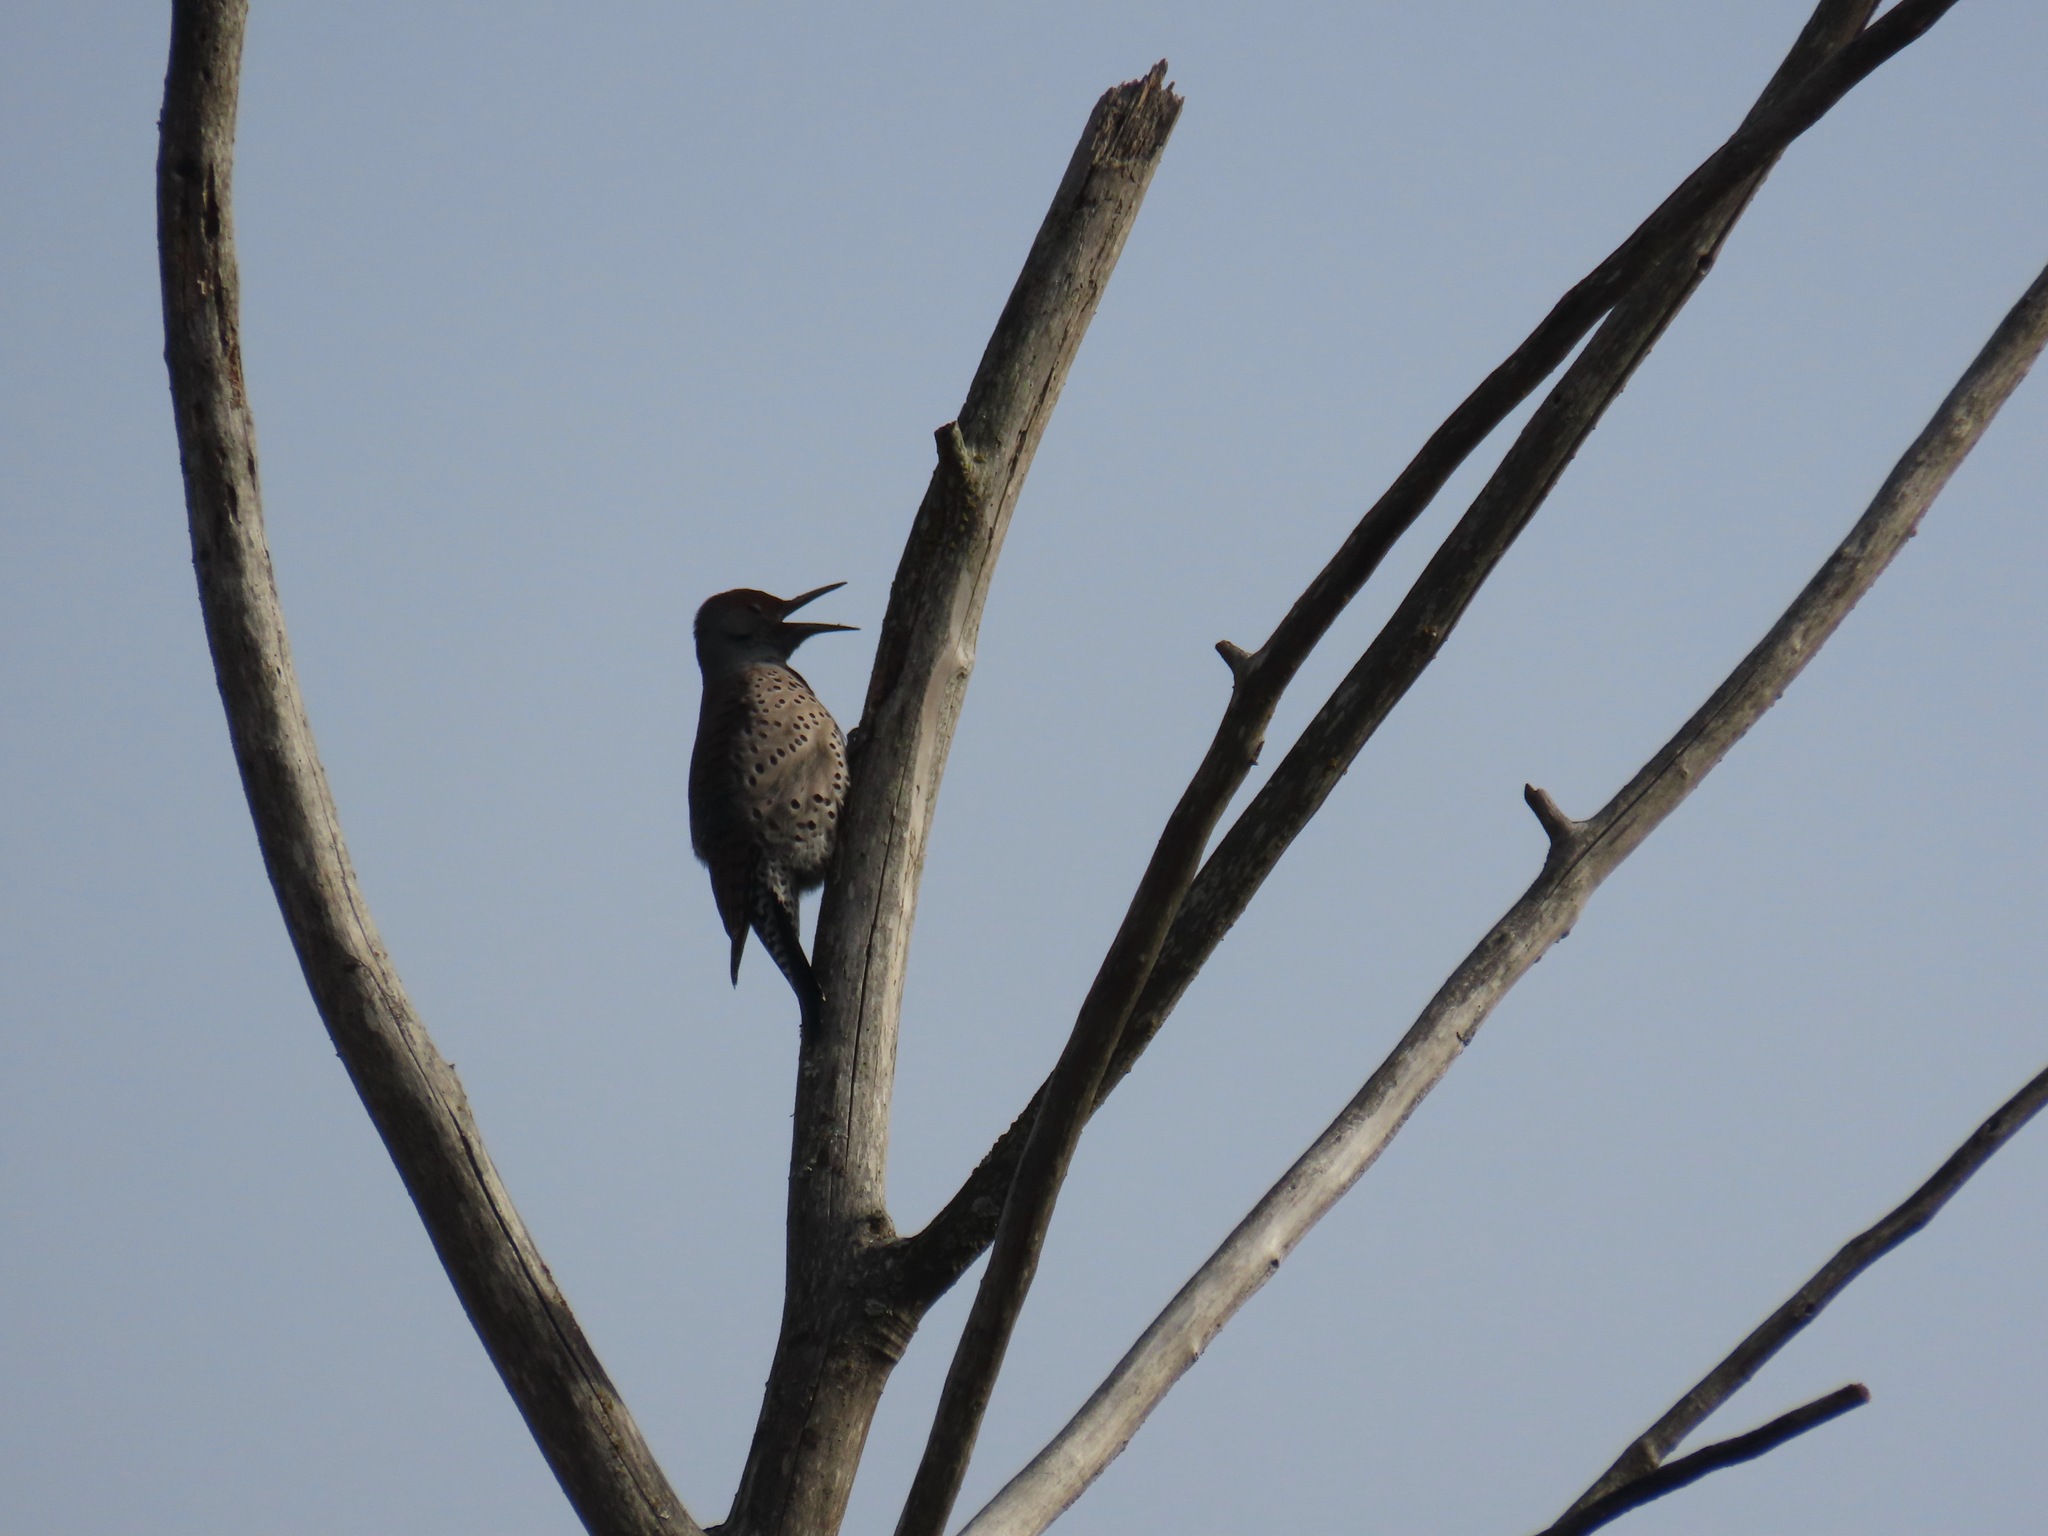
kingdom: Animalia
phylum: Chordata
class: Aves
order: Piciformes
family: Picidae
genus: Colaptes
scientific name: Colaptes auratus
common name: Northern flicker
